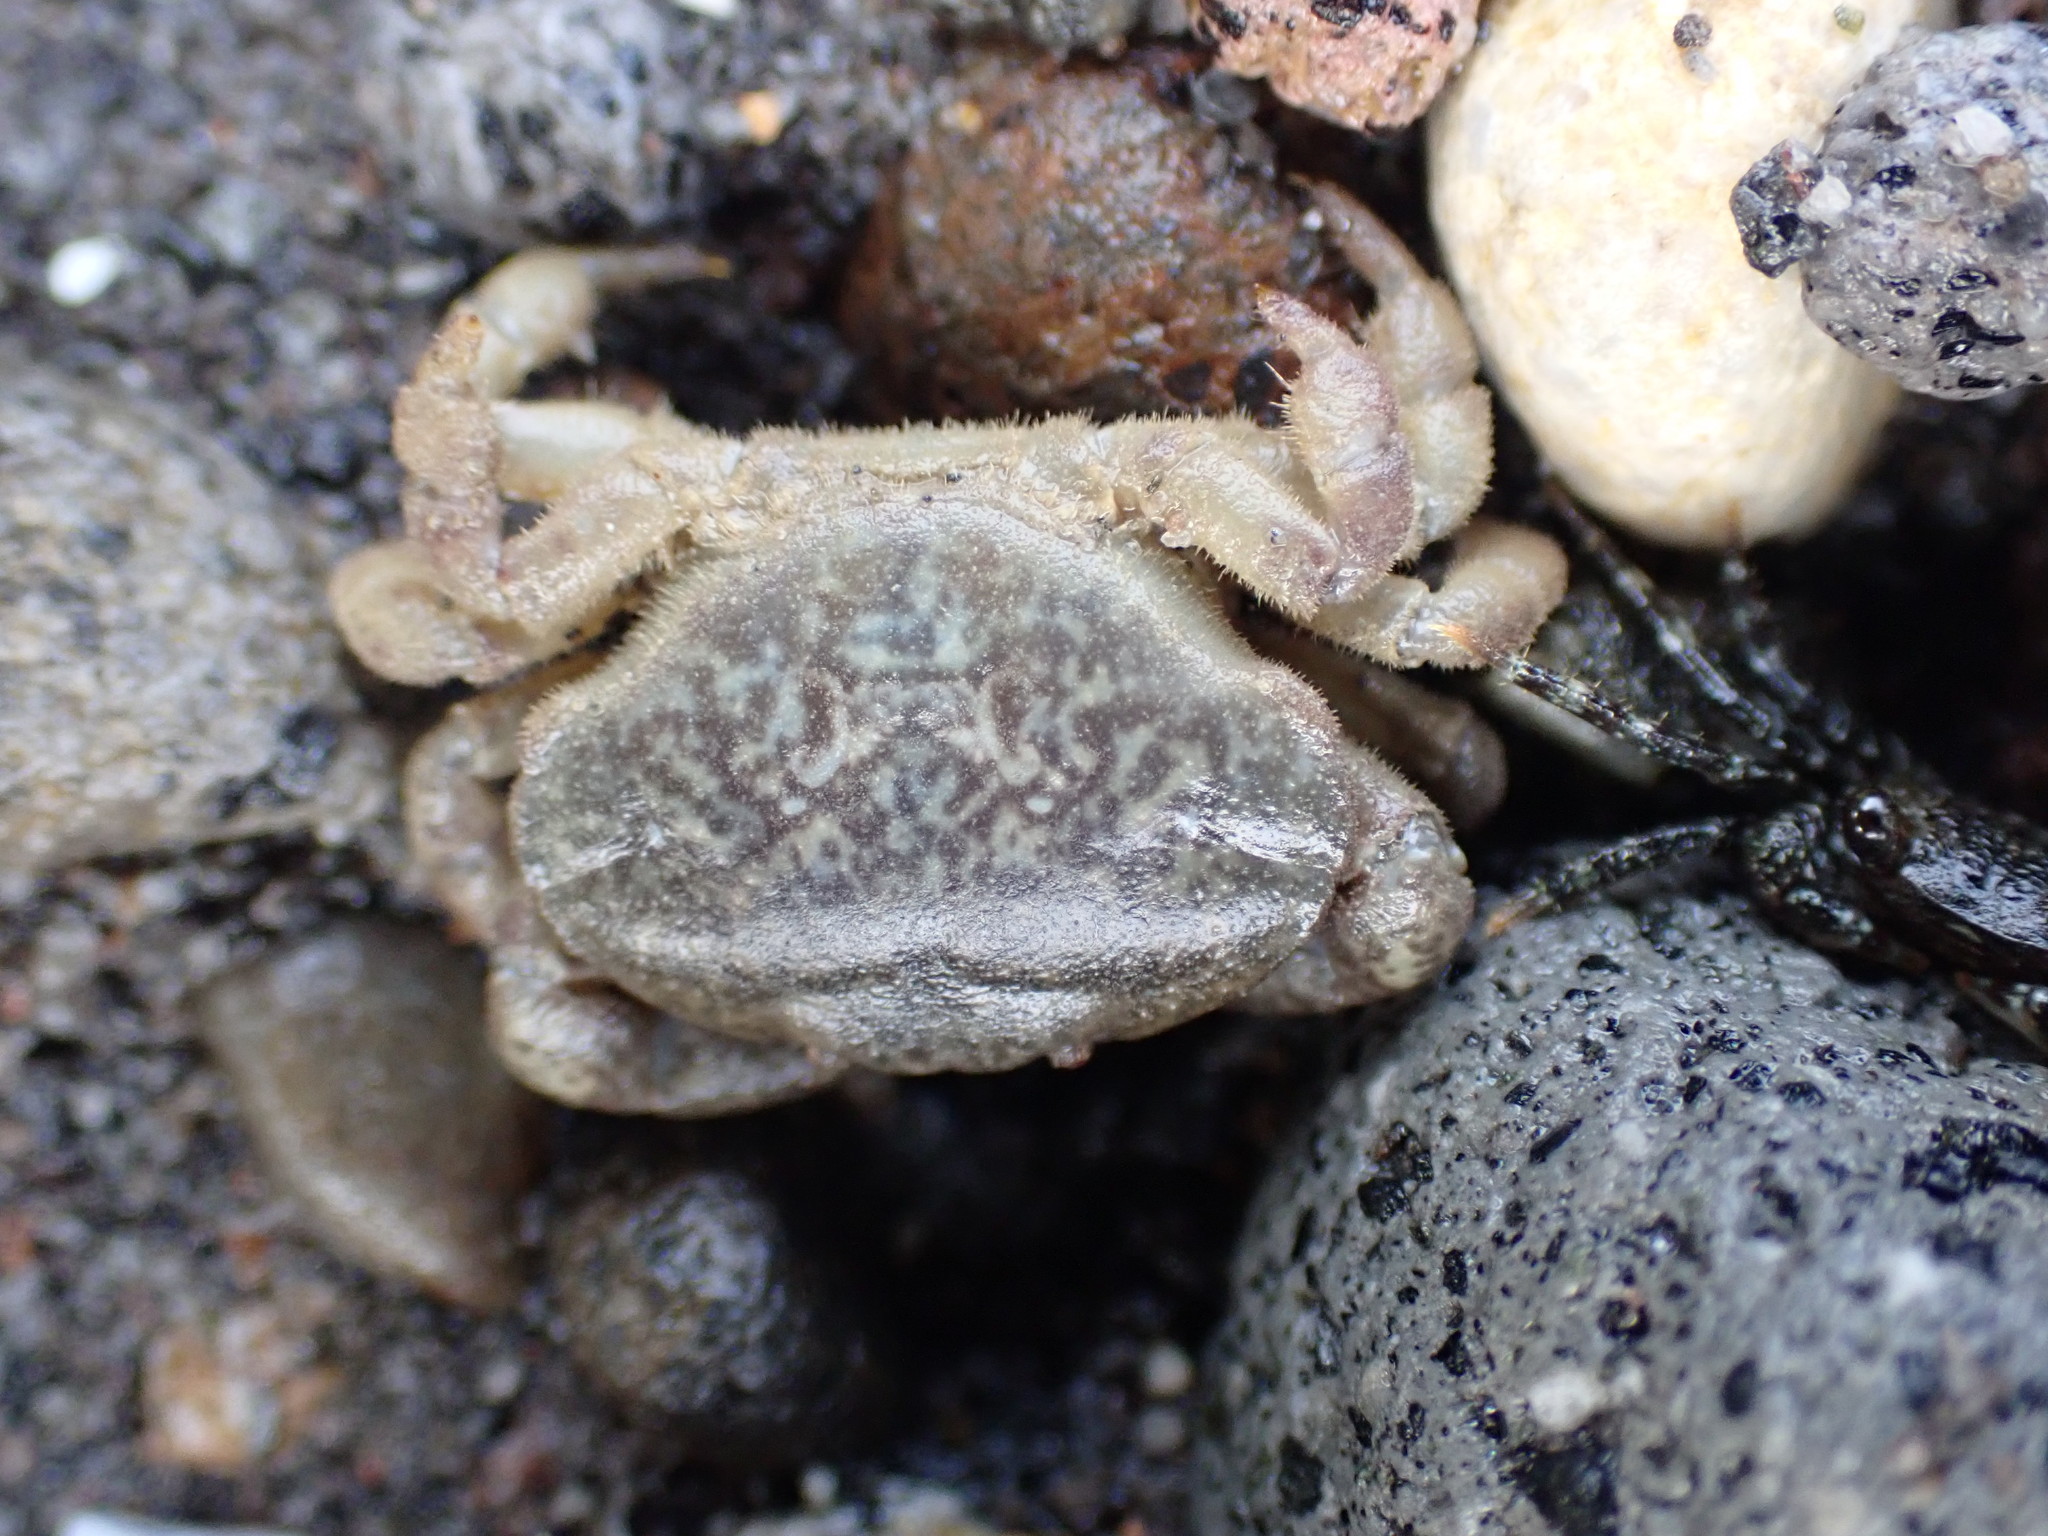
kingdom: Animalia
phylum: Arthropoda
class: Malacostraca
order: Decapoda
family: Heteroziidae
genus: Heterozius
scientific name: Heterozius rotundifrons
